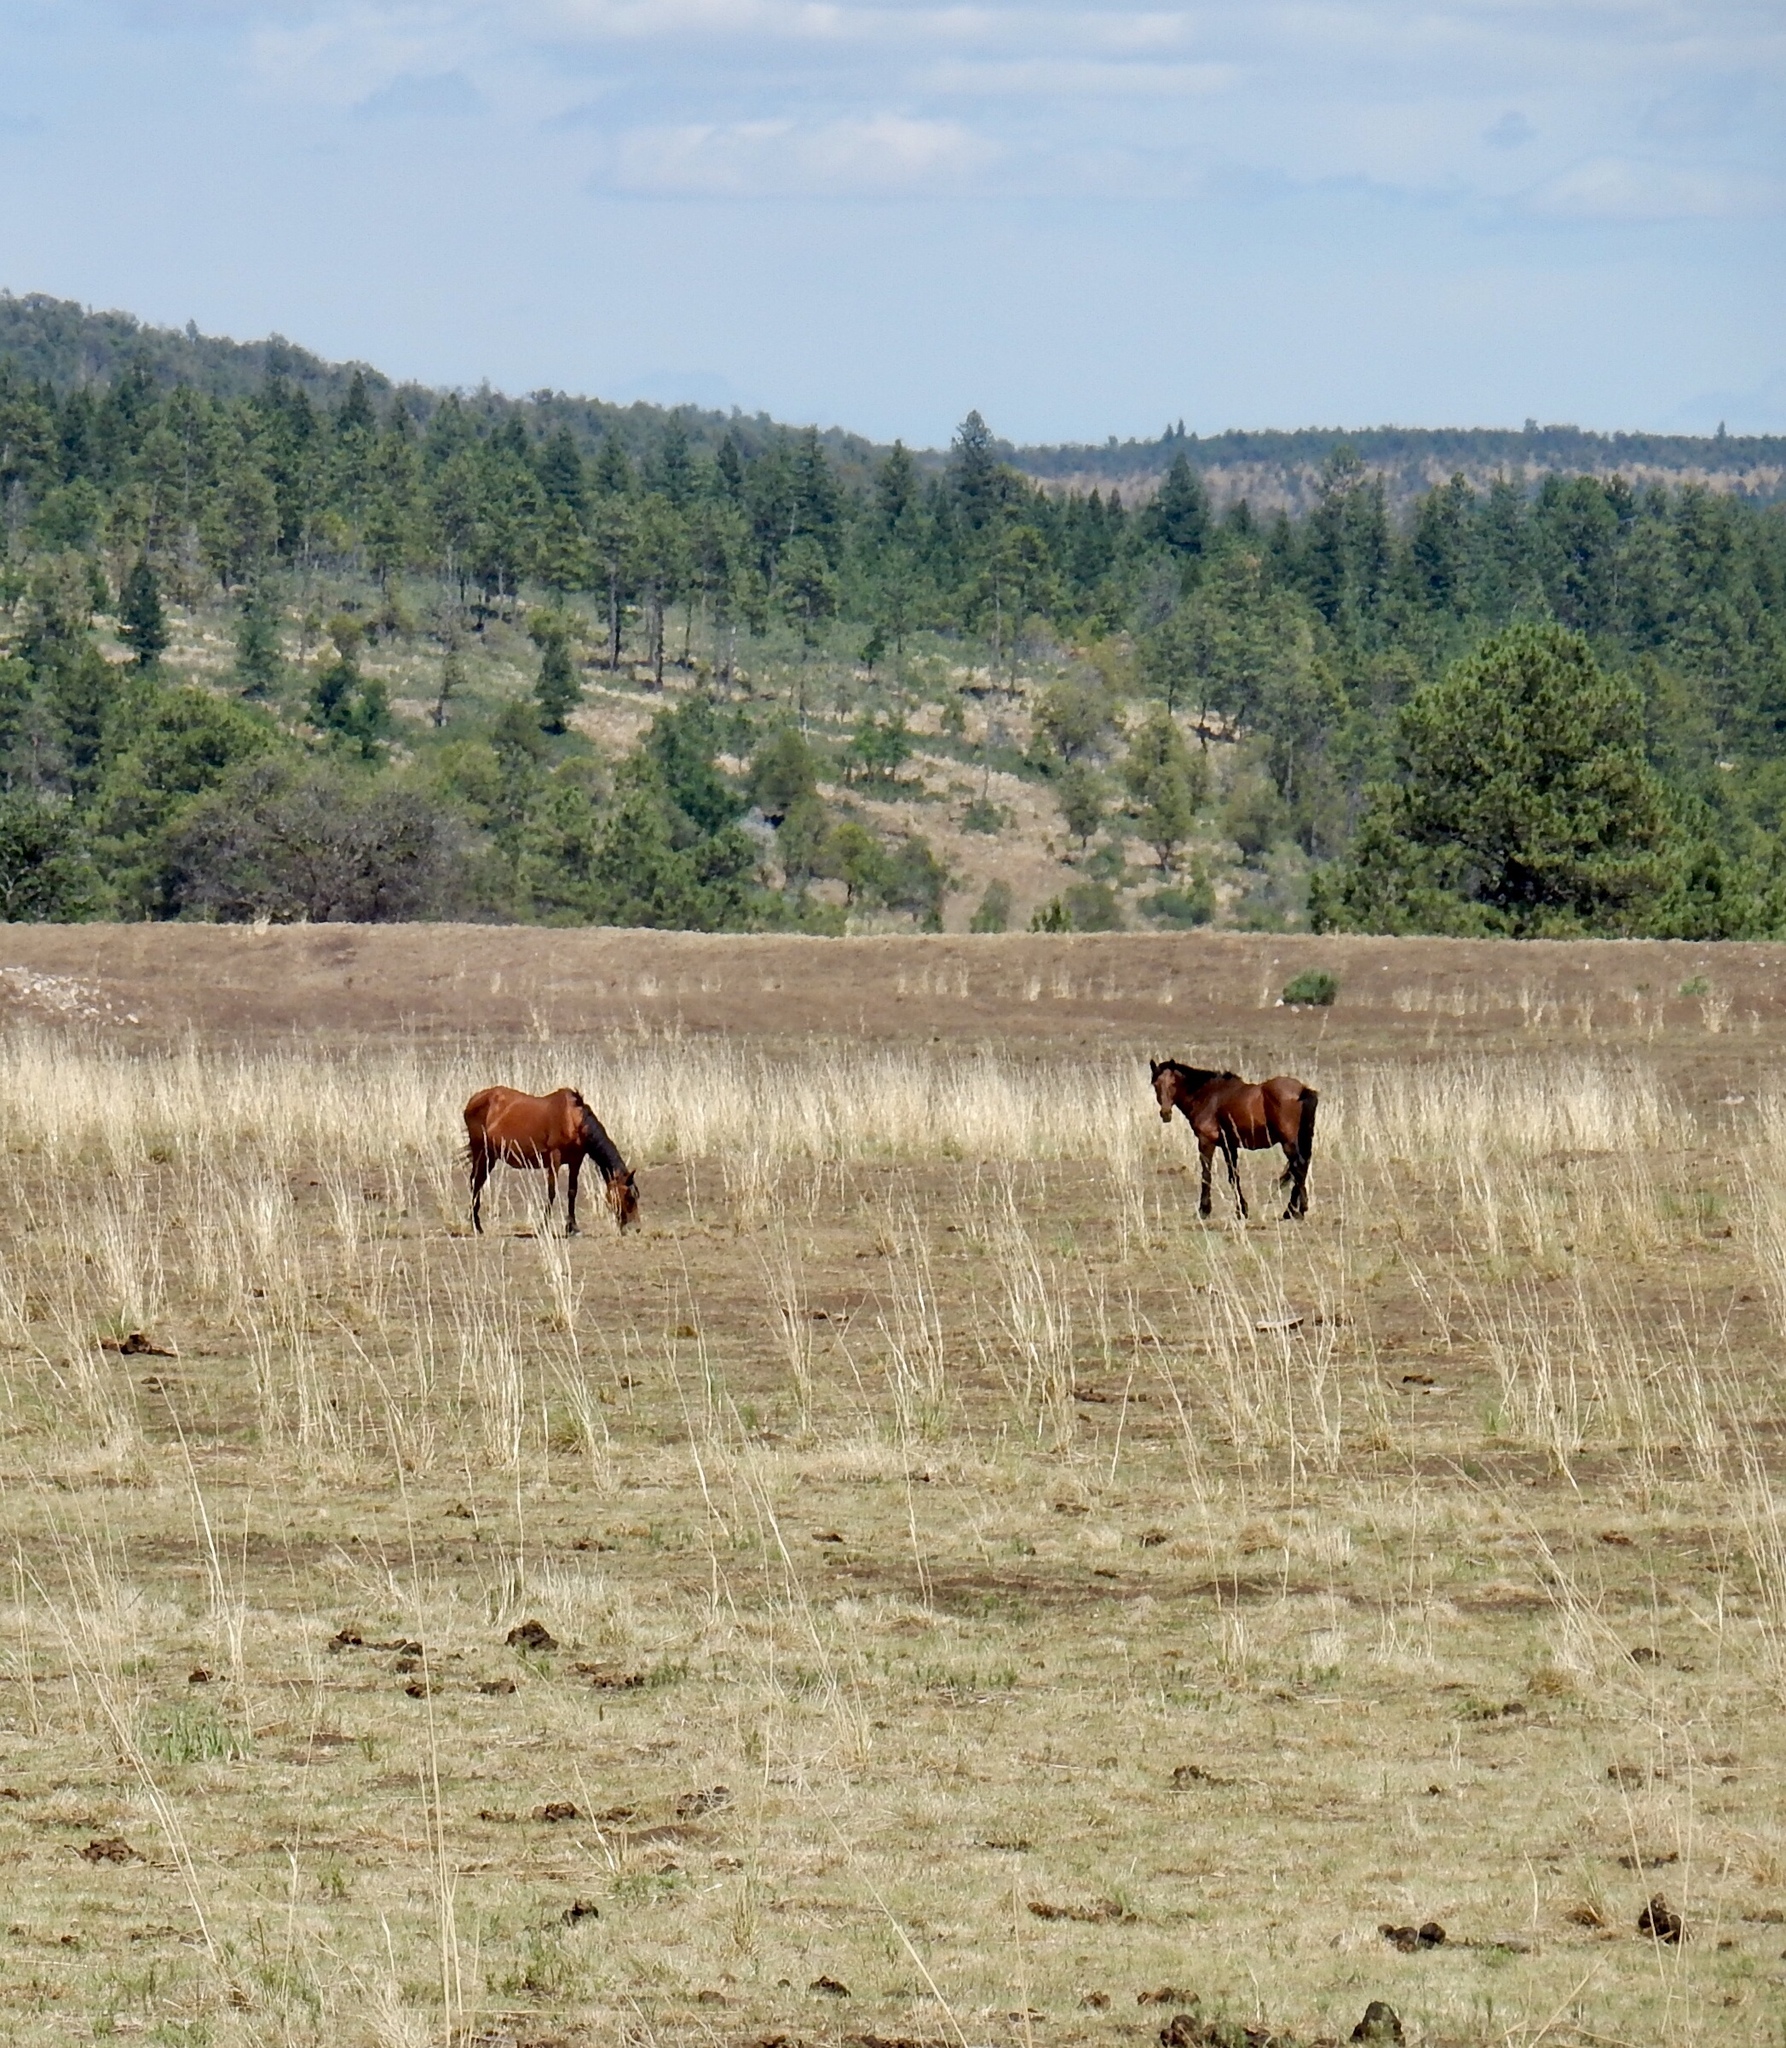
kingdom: Animalia
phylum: Chordata
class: Mammalia
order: Perissodactyla
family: Equidae
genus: Equus
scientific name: Equus caballus
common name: Horse
